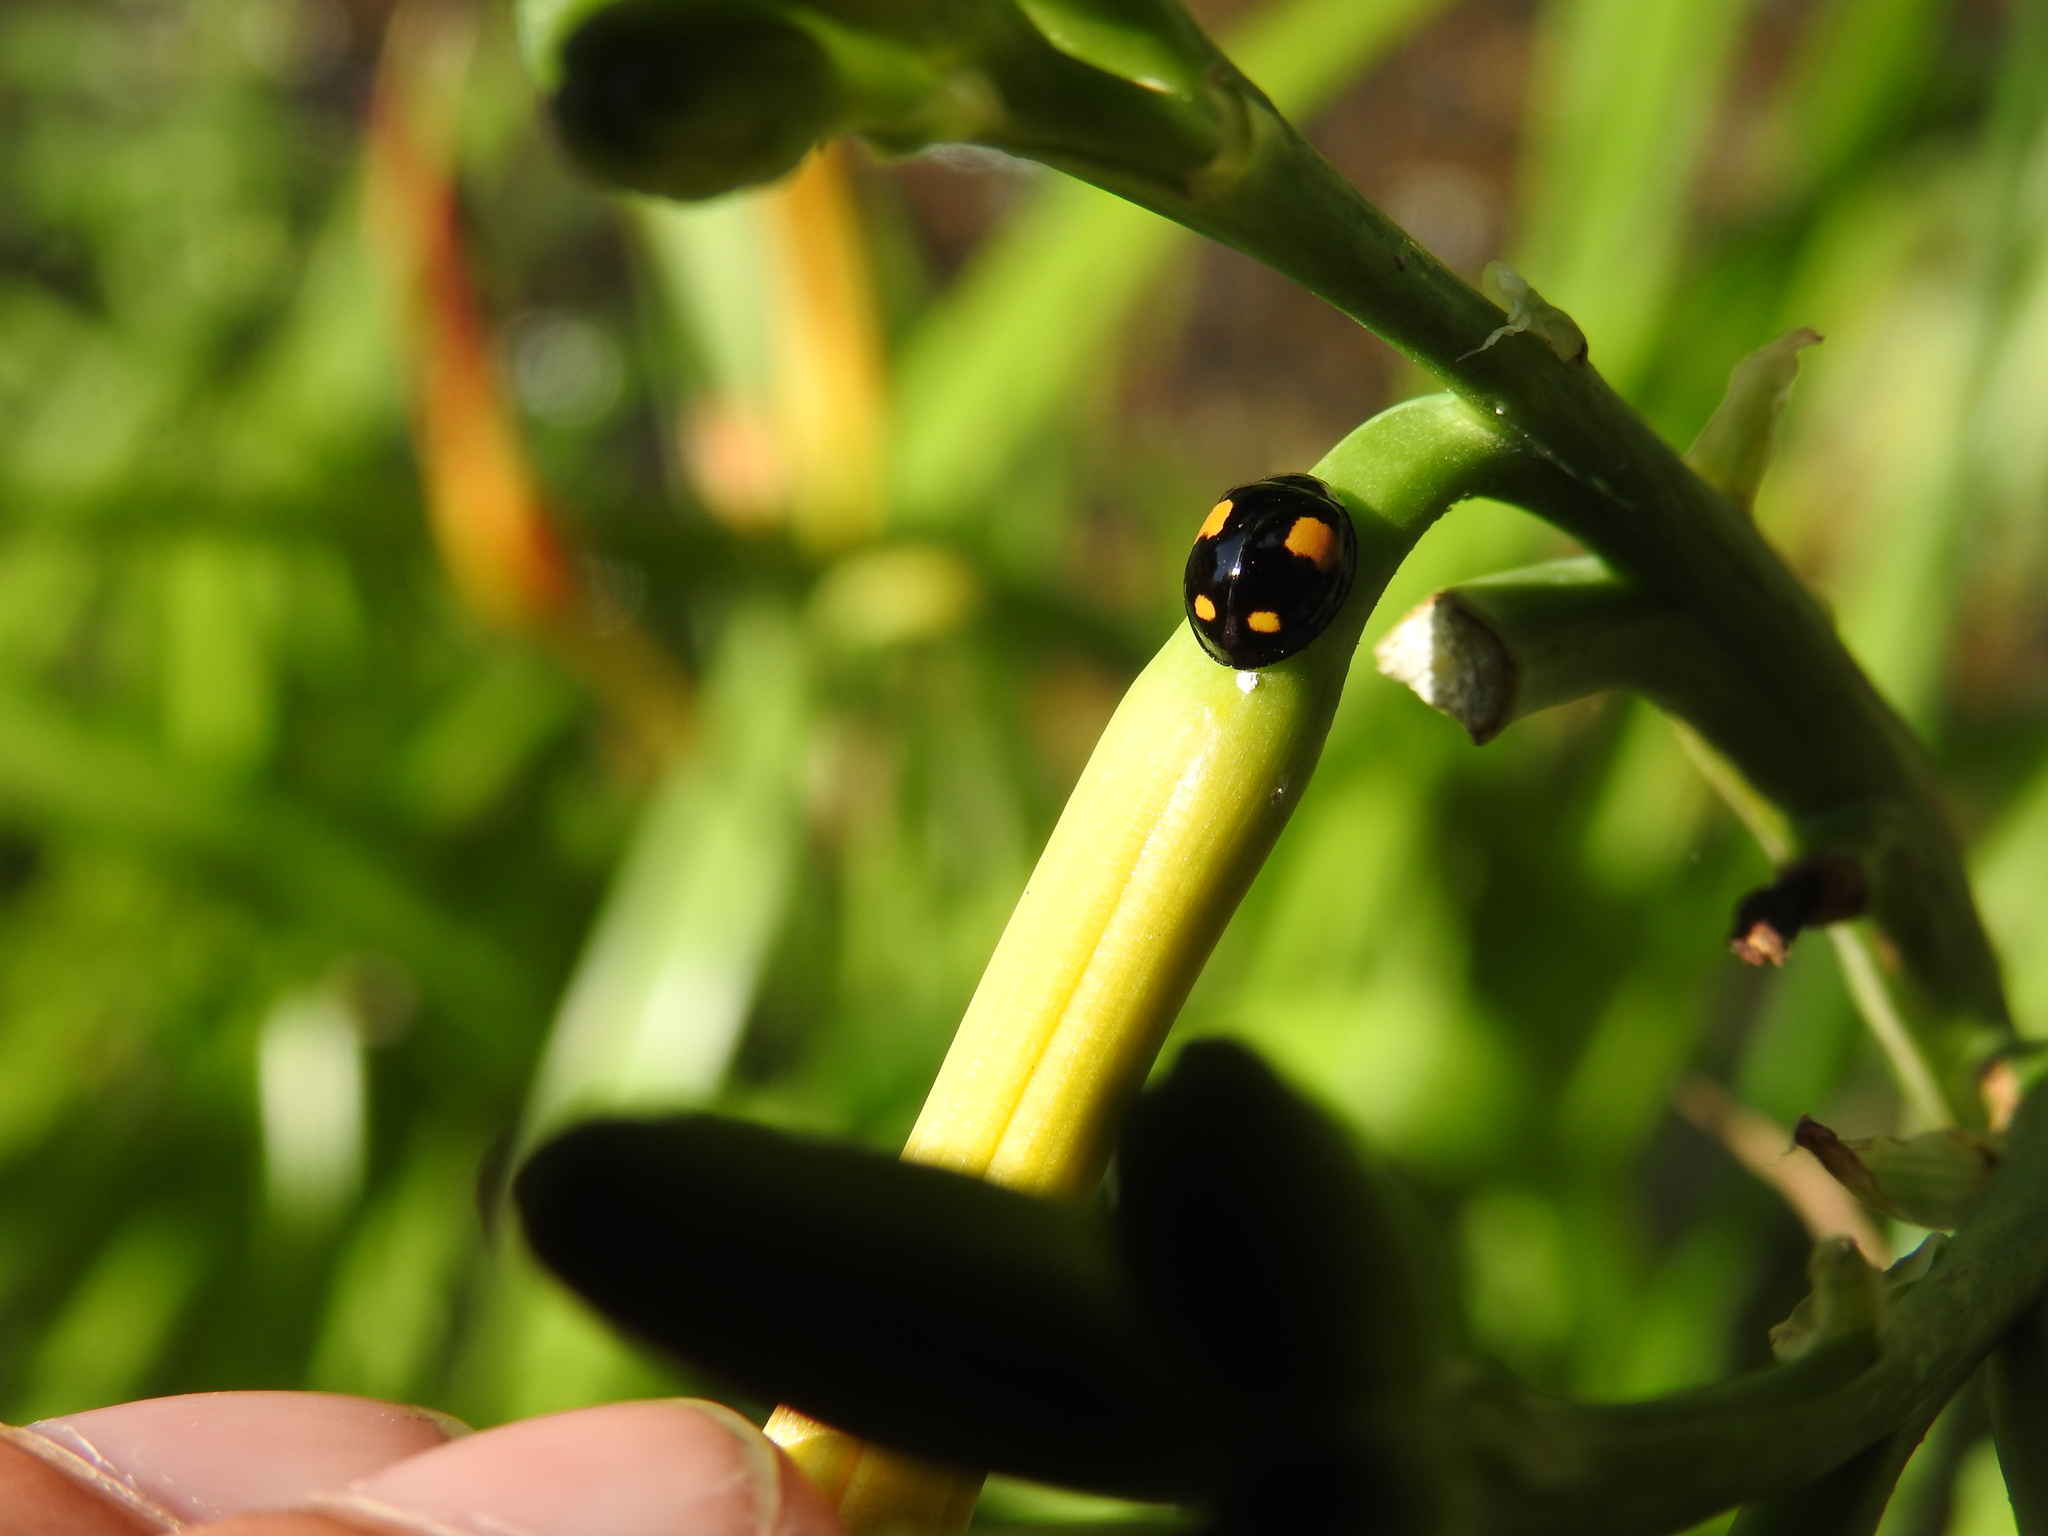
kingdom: Animalia
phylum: Arthropoda
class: Insecta
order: Coleoptera
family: Coccinellidae
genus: Harmonia
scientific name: Harmonia axyridis
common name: Harlequin ladybird
